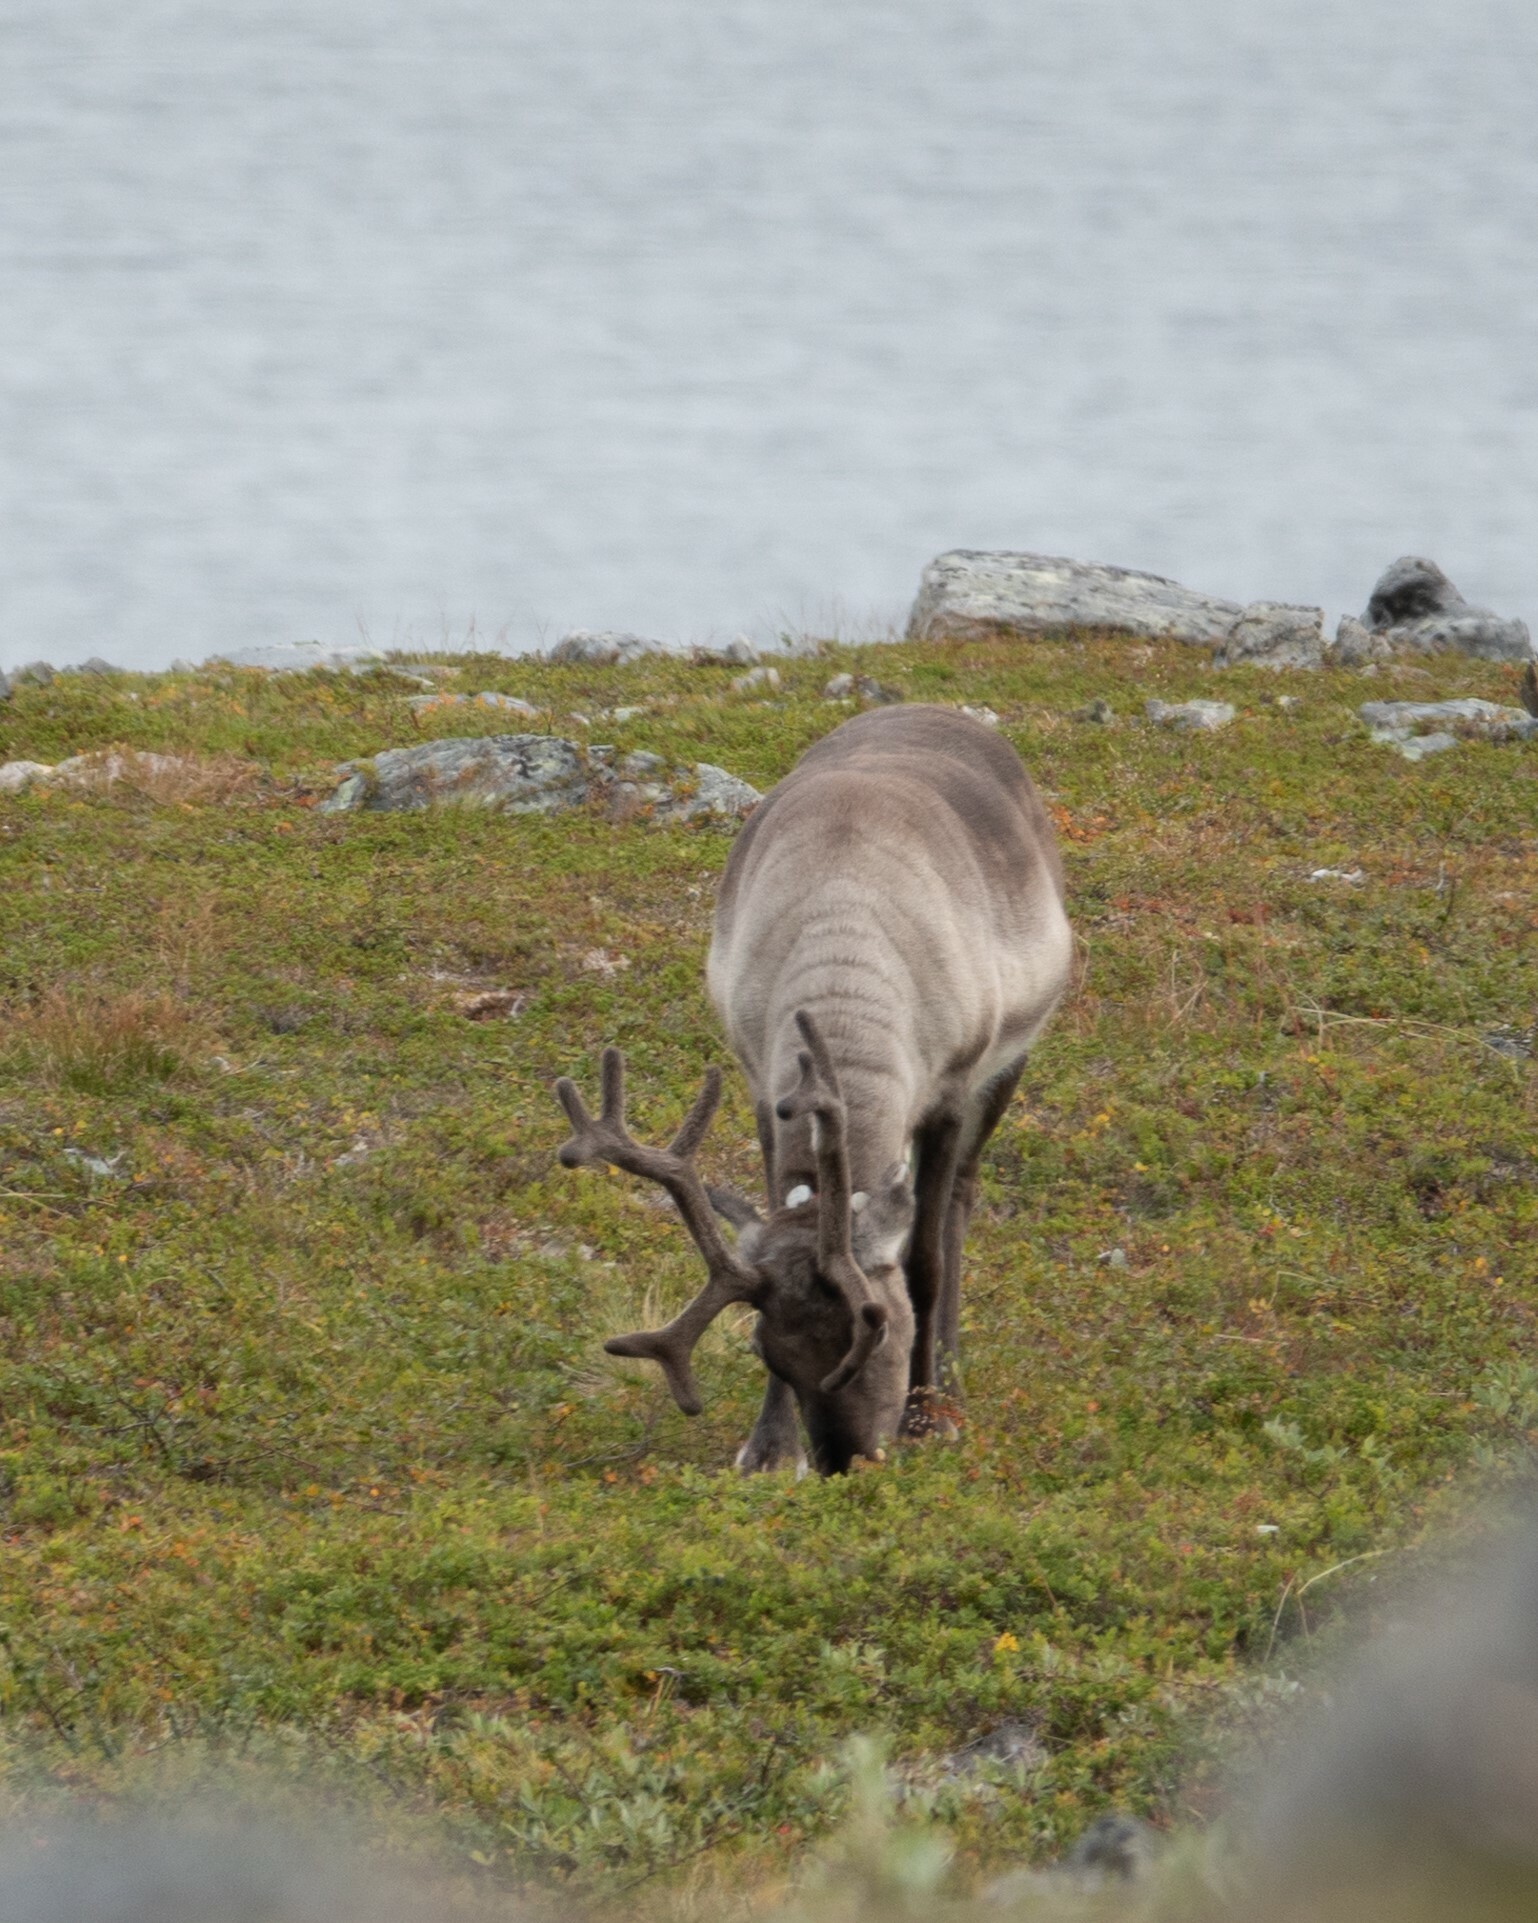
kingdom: Animalia
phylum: Chordata
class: Mammalia
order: Artiodactyla
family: Cervidae
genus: Rangifer
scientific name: Rangifer tarandus
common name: Reindeer
